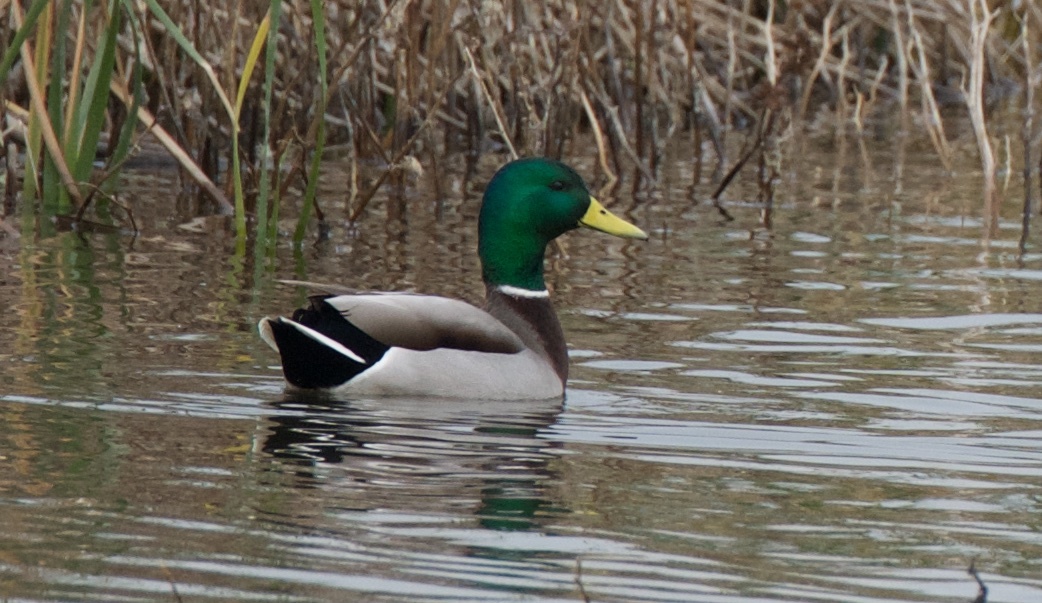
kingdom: Animalia
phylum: Chordata
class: Aves
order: Anseriformes
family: Anatidae
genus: Anas
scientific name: Anas platyrhynchos
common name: Mallard
